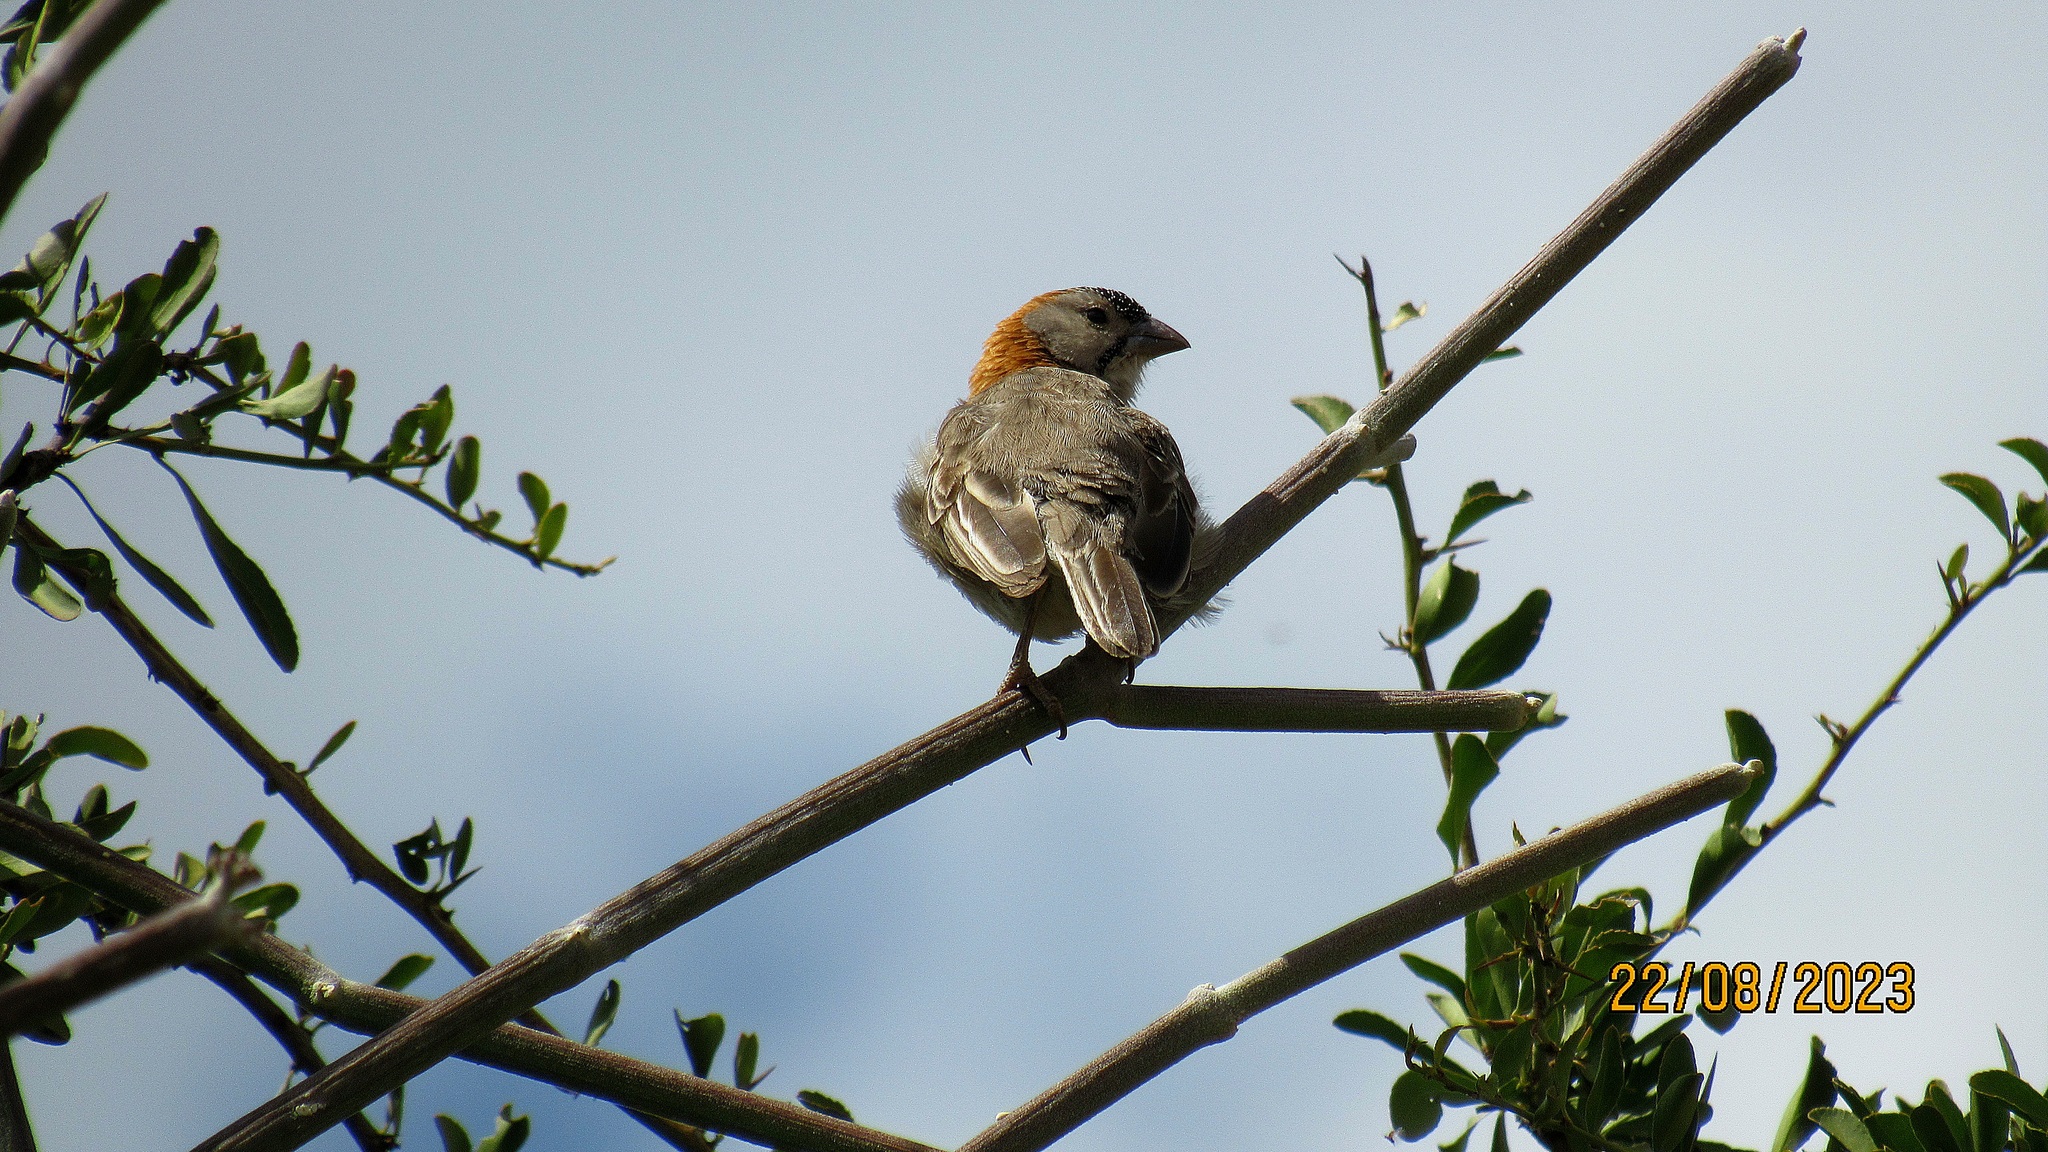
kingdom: Animalia
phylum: Chordata
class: Aves
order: Passeriformes
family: Ploceidae
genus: Sporopipes
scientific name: Sporopipes frontalis
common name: Speckle-fronted weaver
